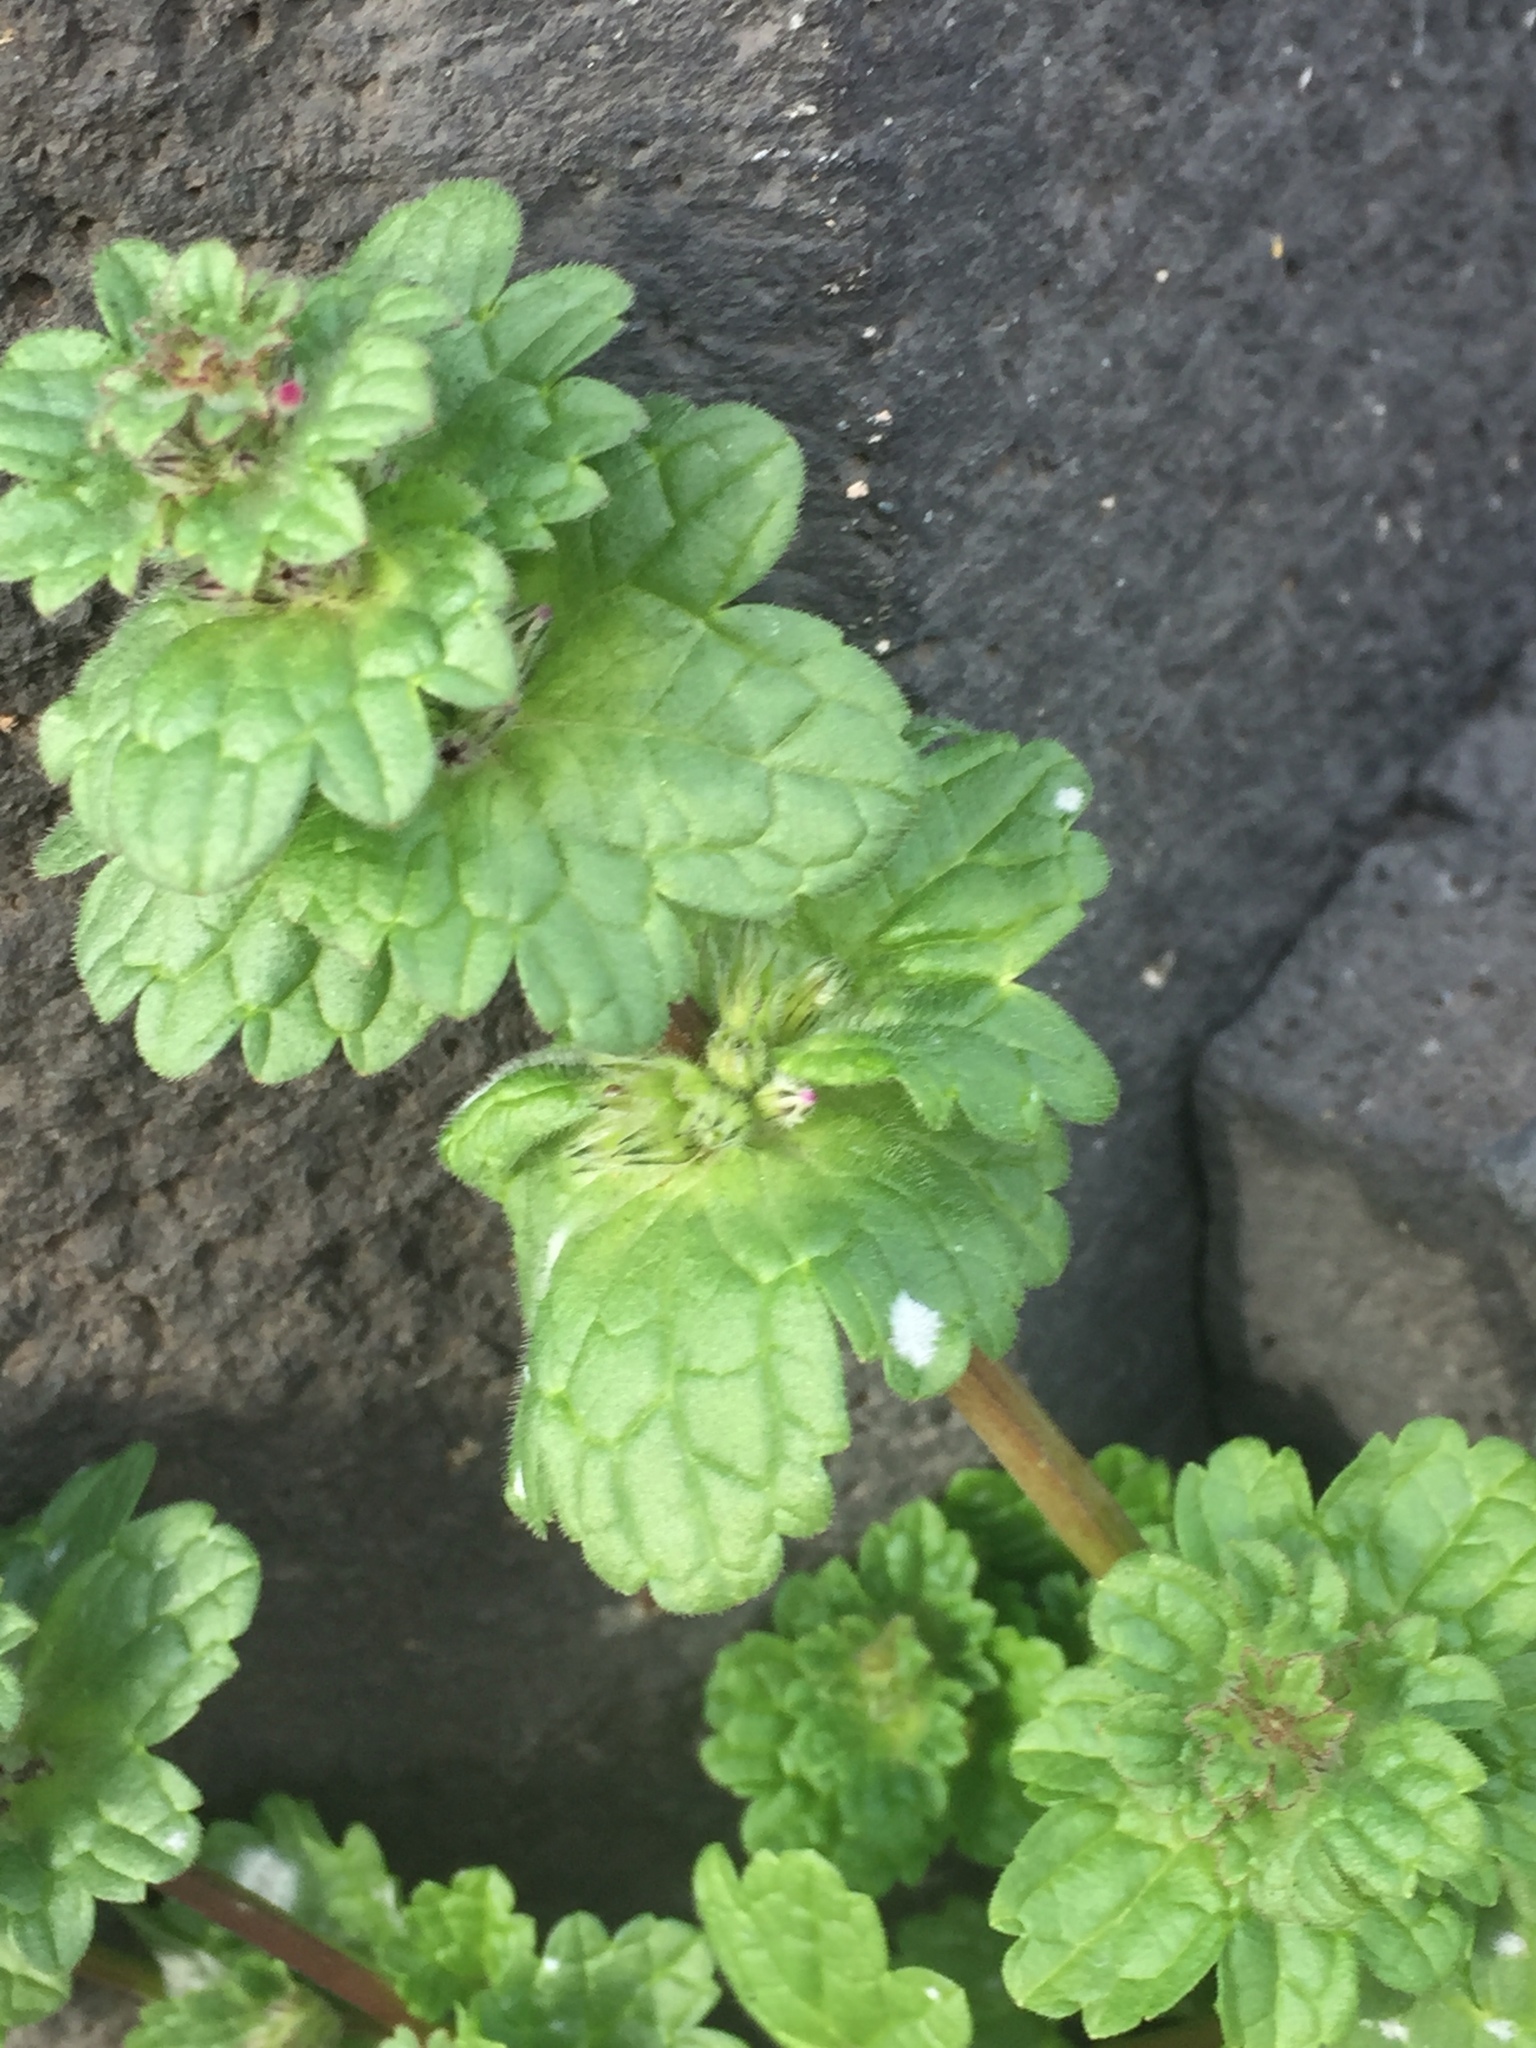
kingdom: Plantae
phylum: Tracheophyta
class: Magnoliopsida
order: Lamiales
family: Lamiaceae
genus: Lamium
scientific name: Lamium amplexicaule
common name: Henbit dead-nettle
